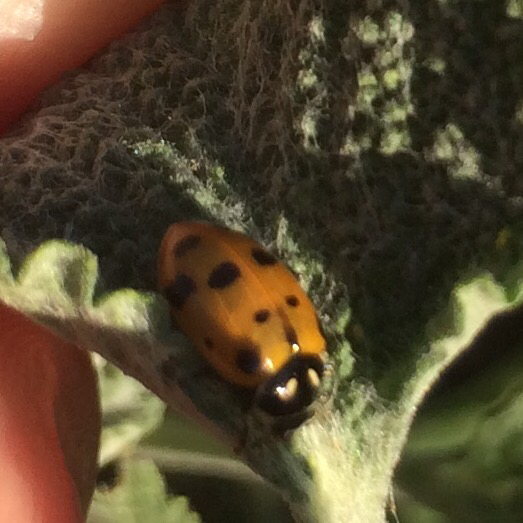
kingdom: Animalia
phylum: Arthropoda
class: Insecta
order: Coleoptera
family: Coccinellidae
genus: Hippodamia
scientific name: Hippodamia convergens
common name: Convergent lady beetle
